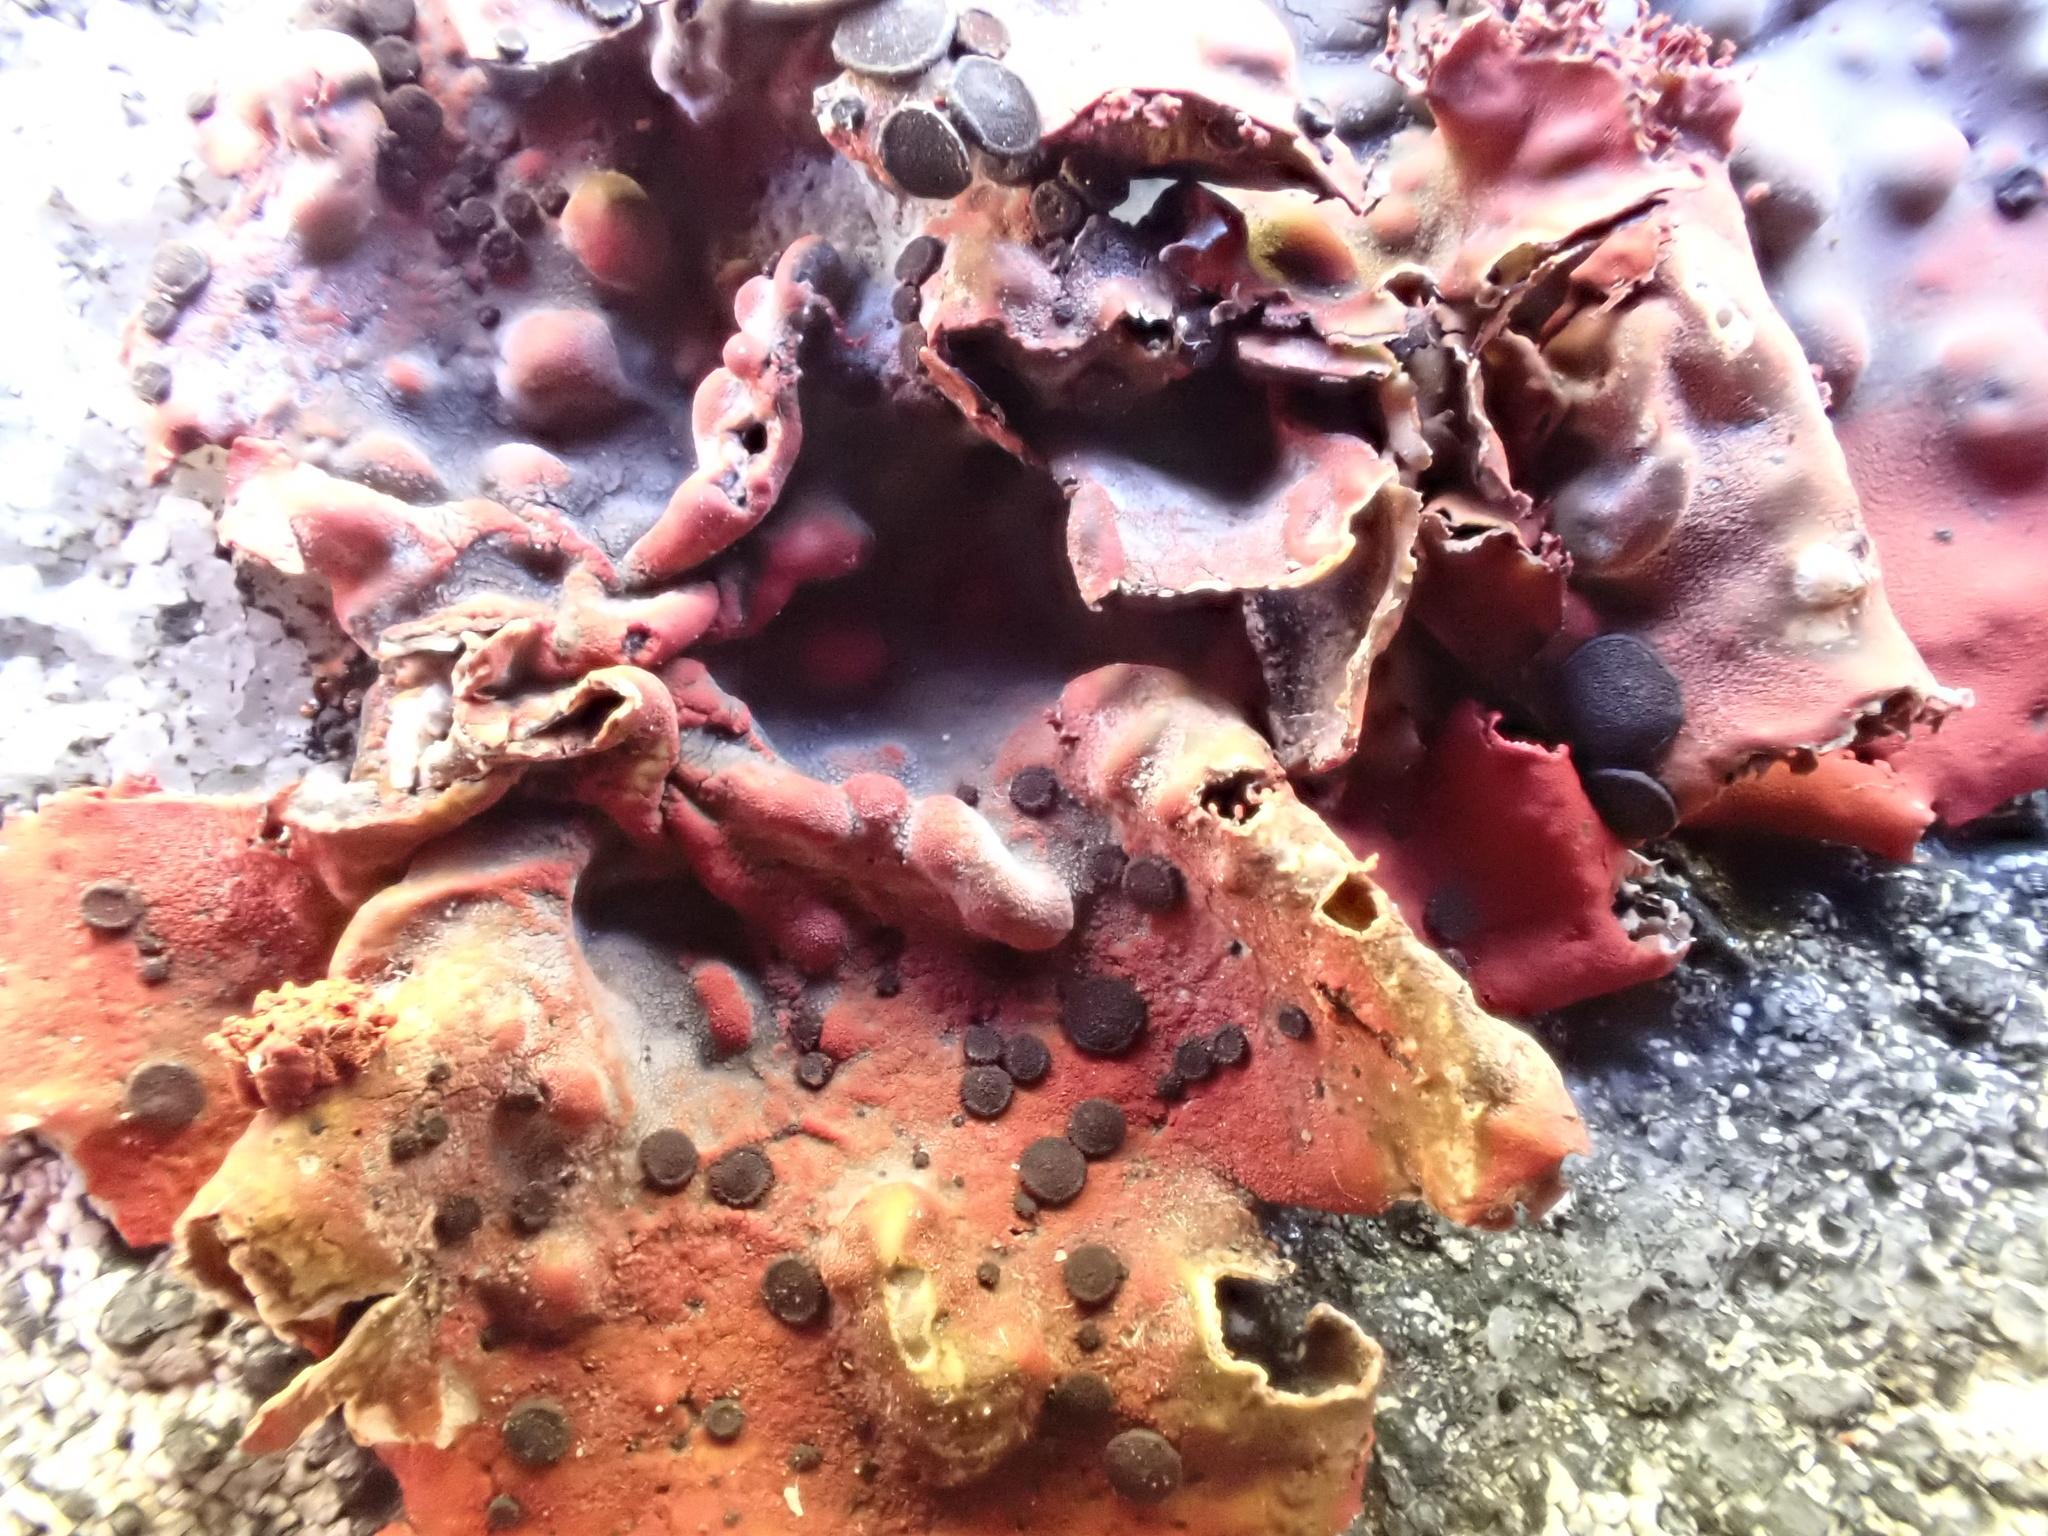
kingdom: Fungi
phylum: Ascomycota
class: Lecanoromycetes
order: Umbilicariales
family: Umbilicariaceae
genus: Lasallia
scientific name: Lasallia rubiginosa
